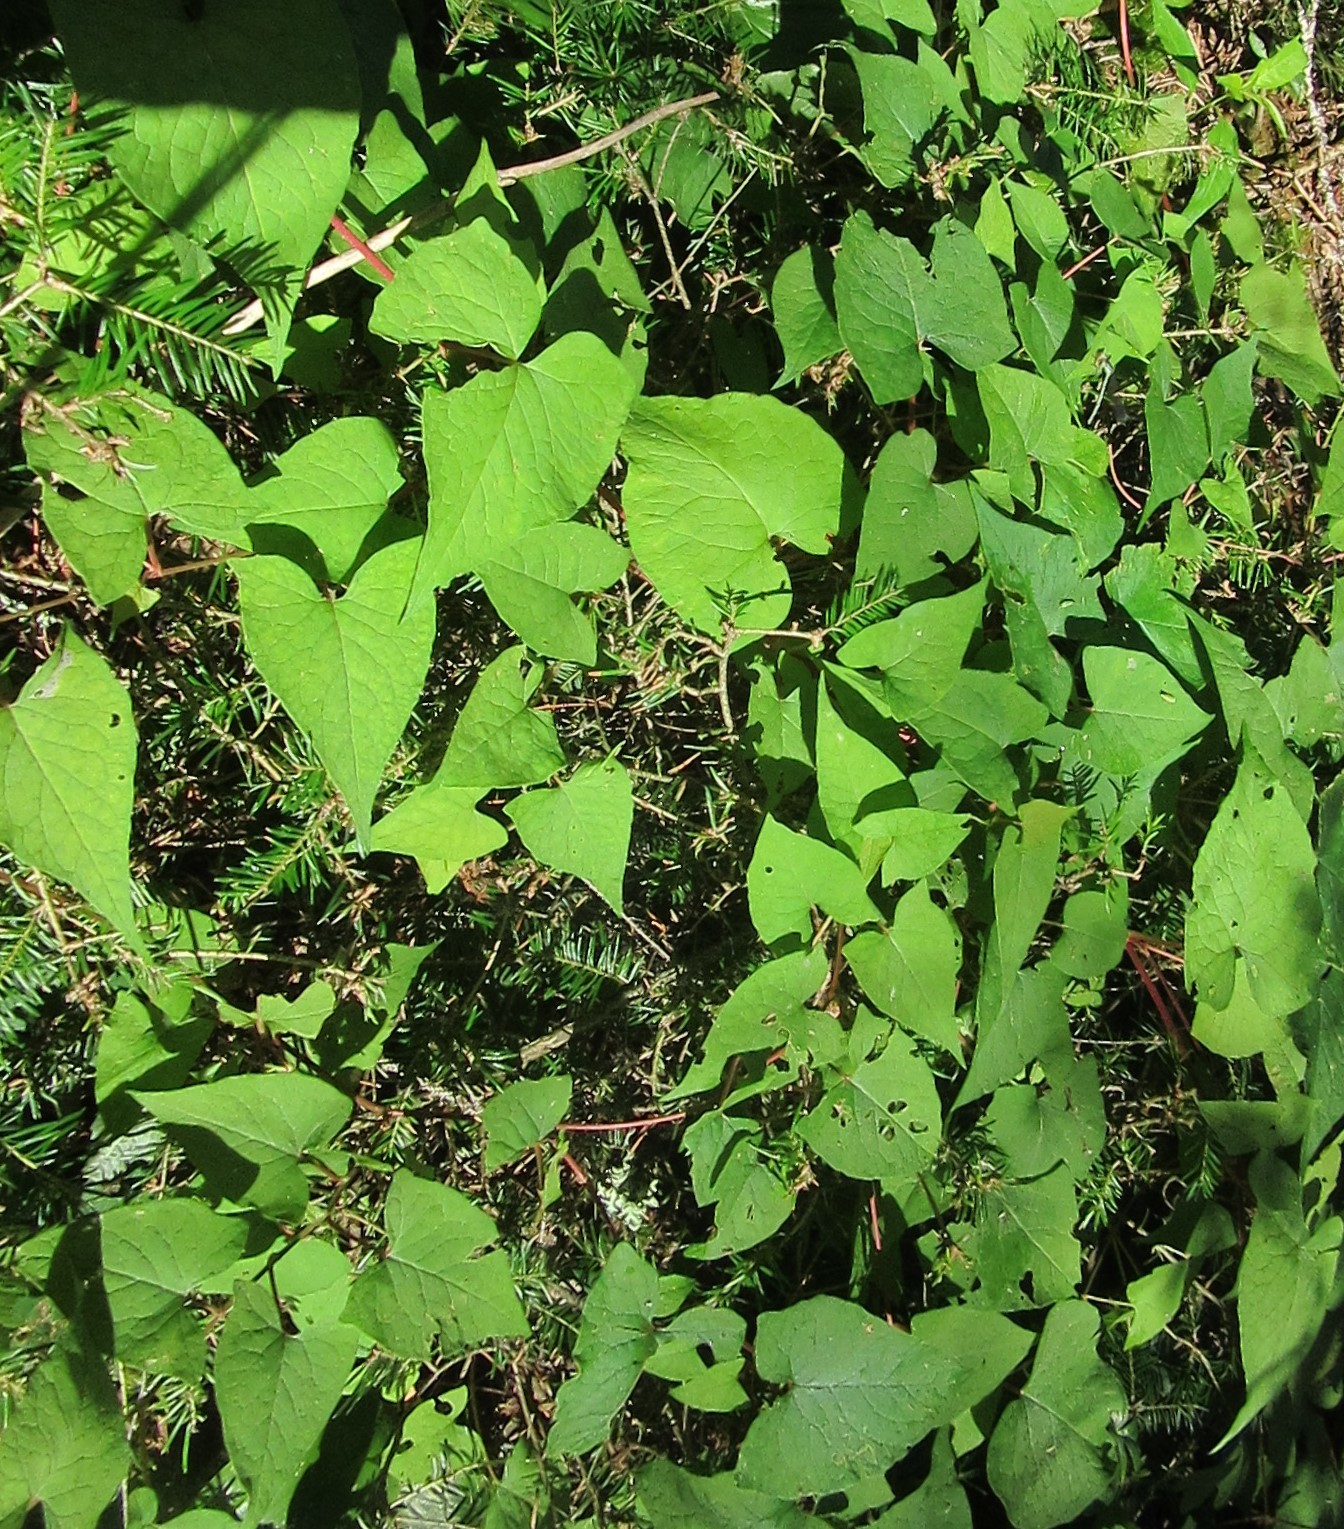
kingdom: Plantae
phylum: Tracheophyta
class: Magnoliopsida
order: Caryophyllales
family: Polygonaceae
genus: Parogonum
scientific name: Parogonum ciliinode
